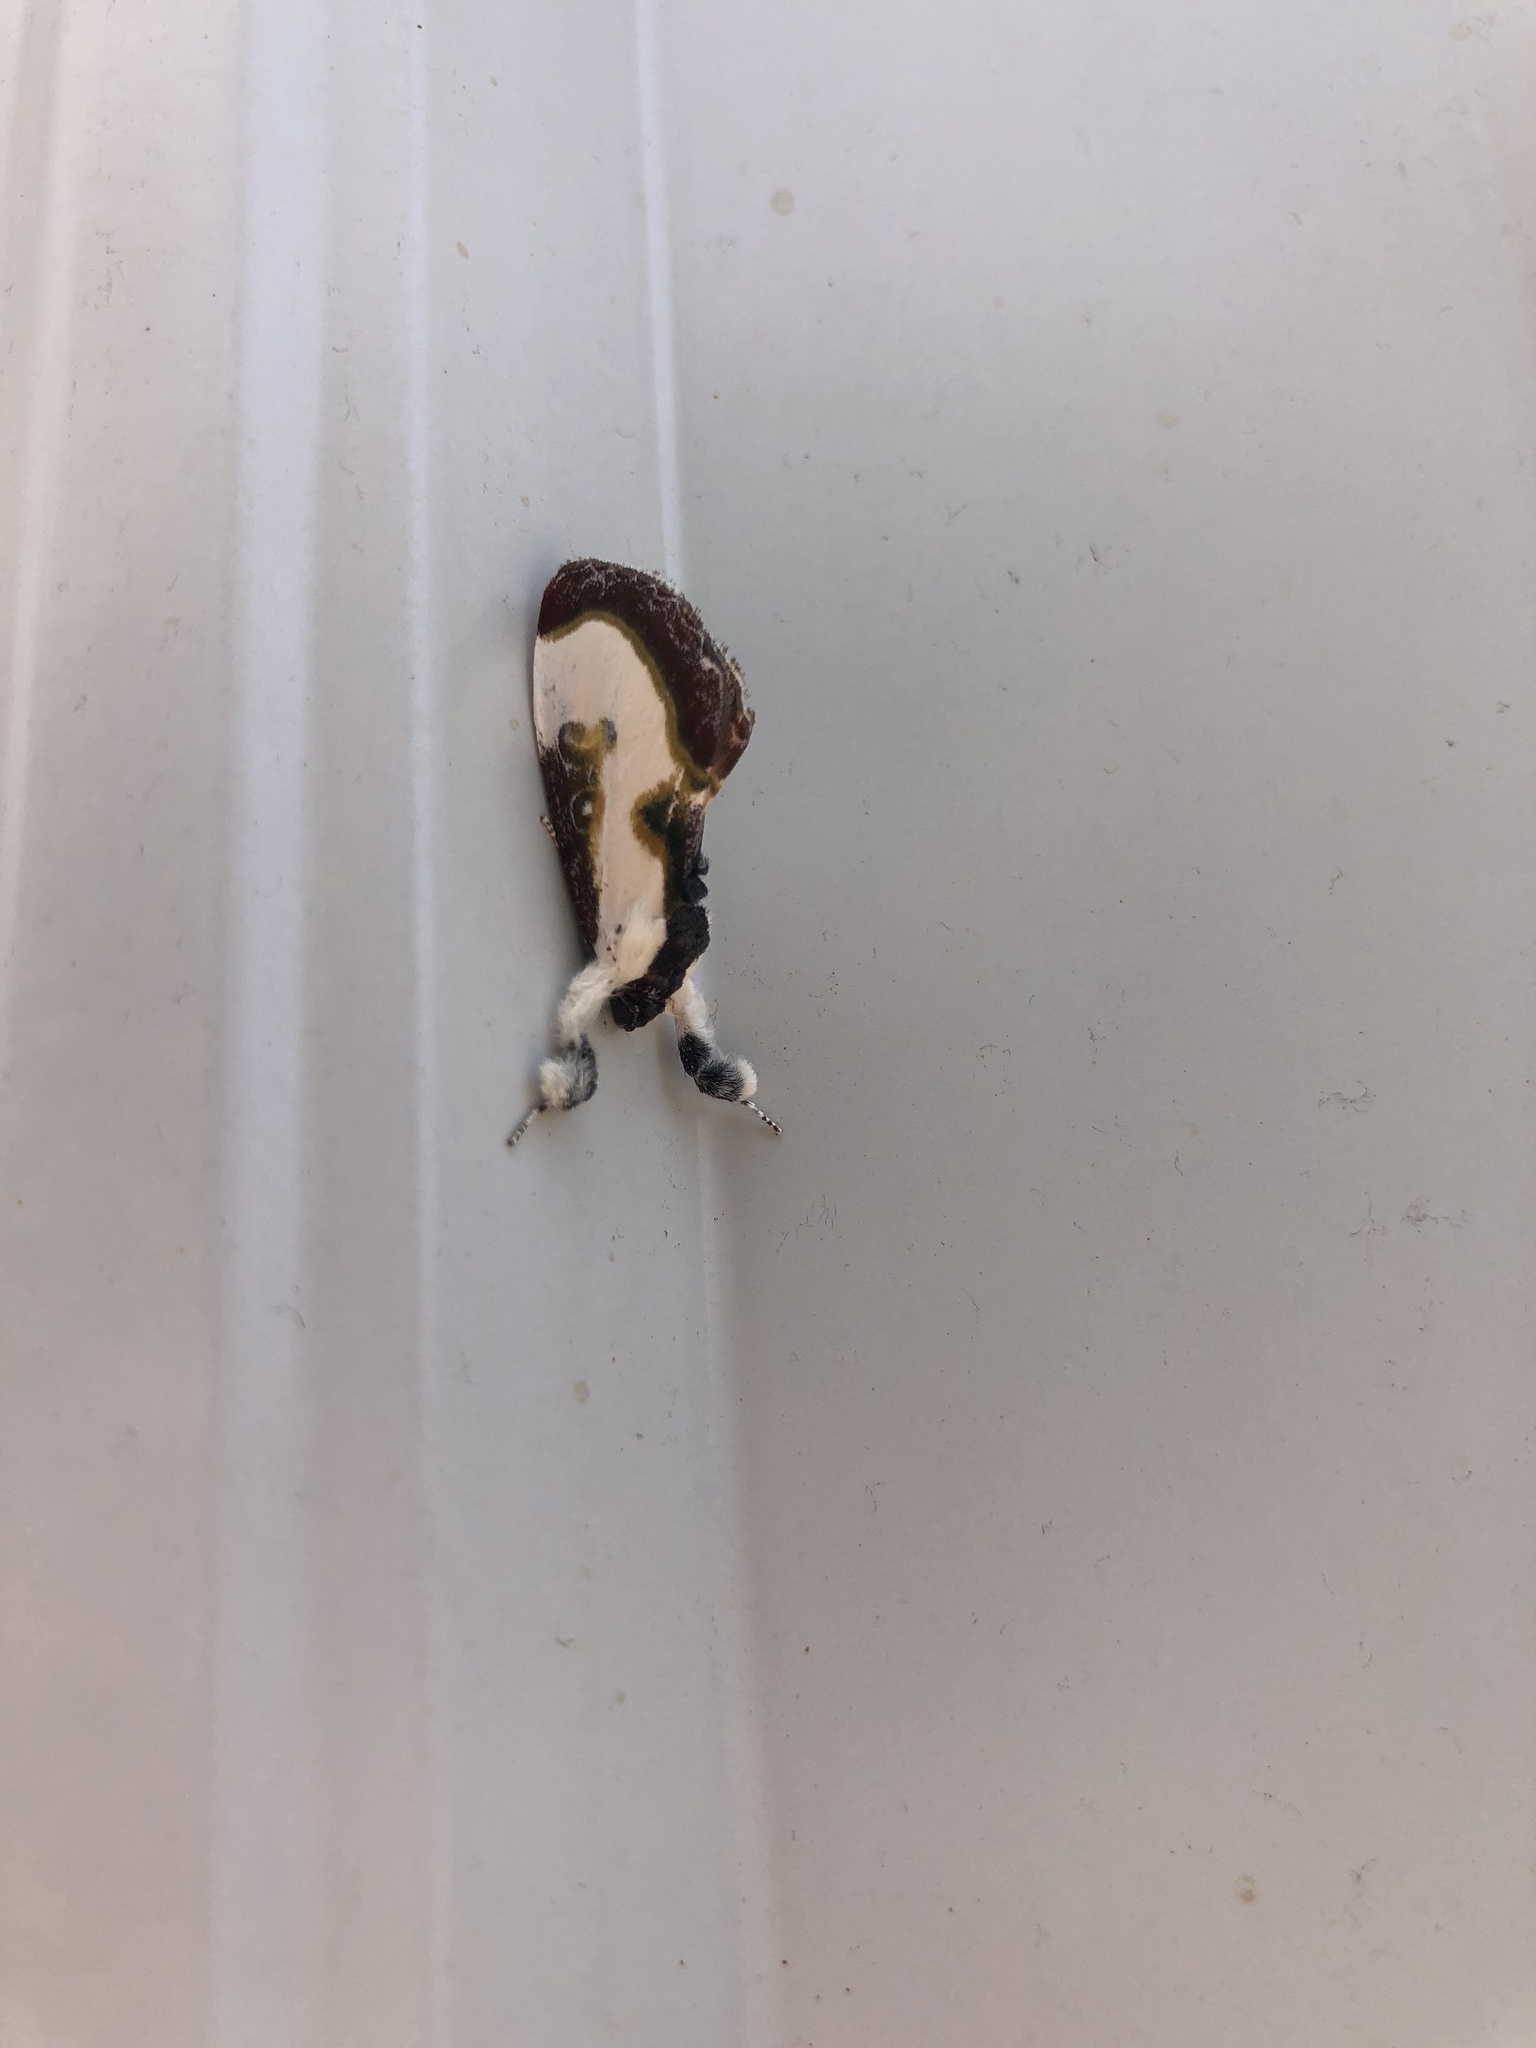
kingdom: Animalia
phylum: Arthropoda
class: Insecta
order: Lepidoptera
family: Noctuidae
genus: Eudryas
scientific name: Eudryas grata
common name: Beautiful wood-nymph
